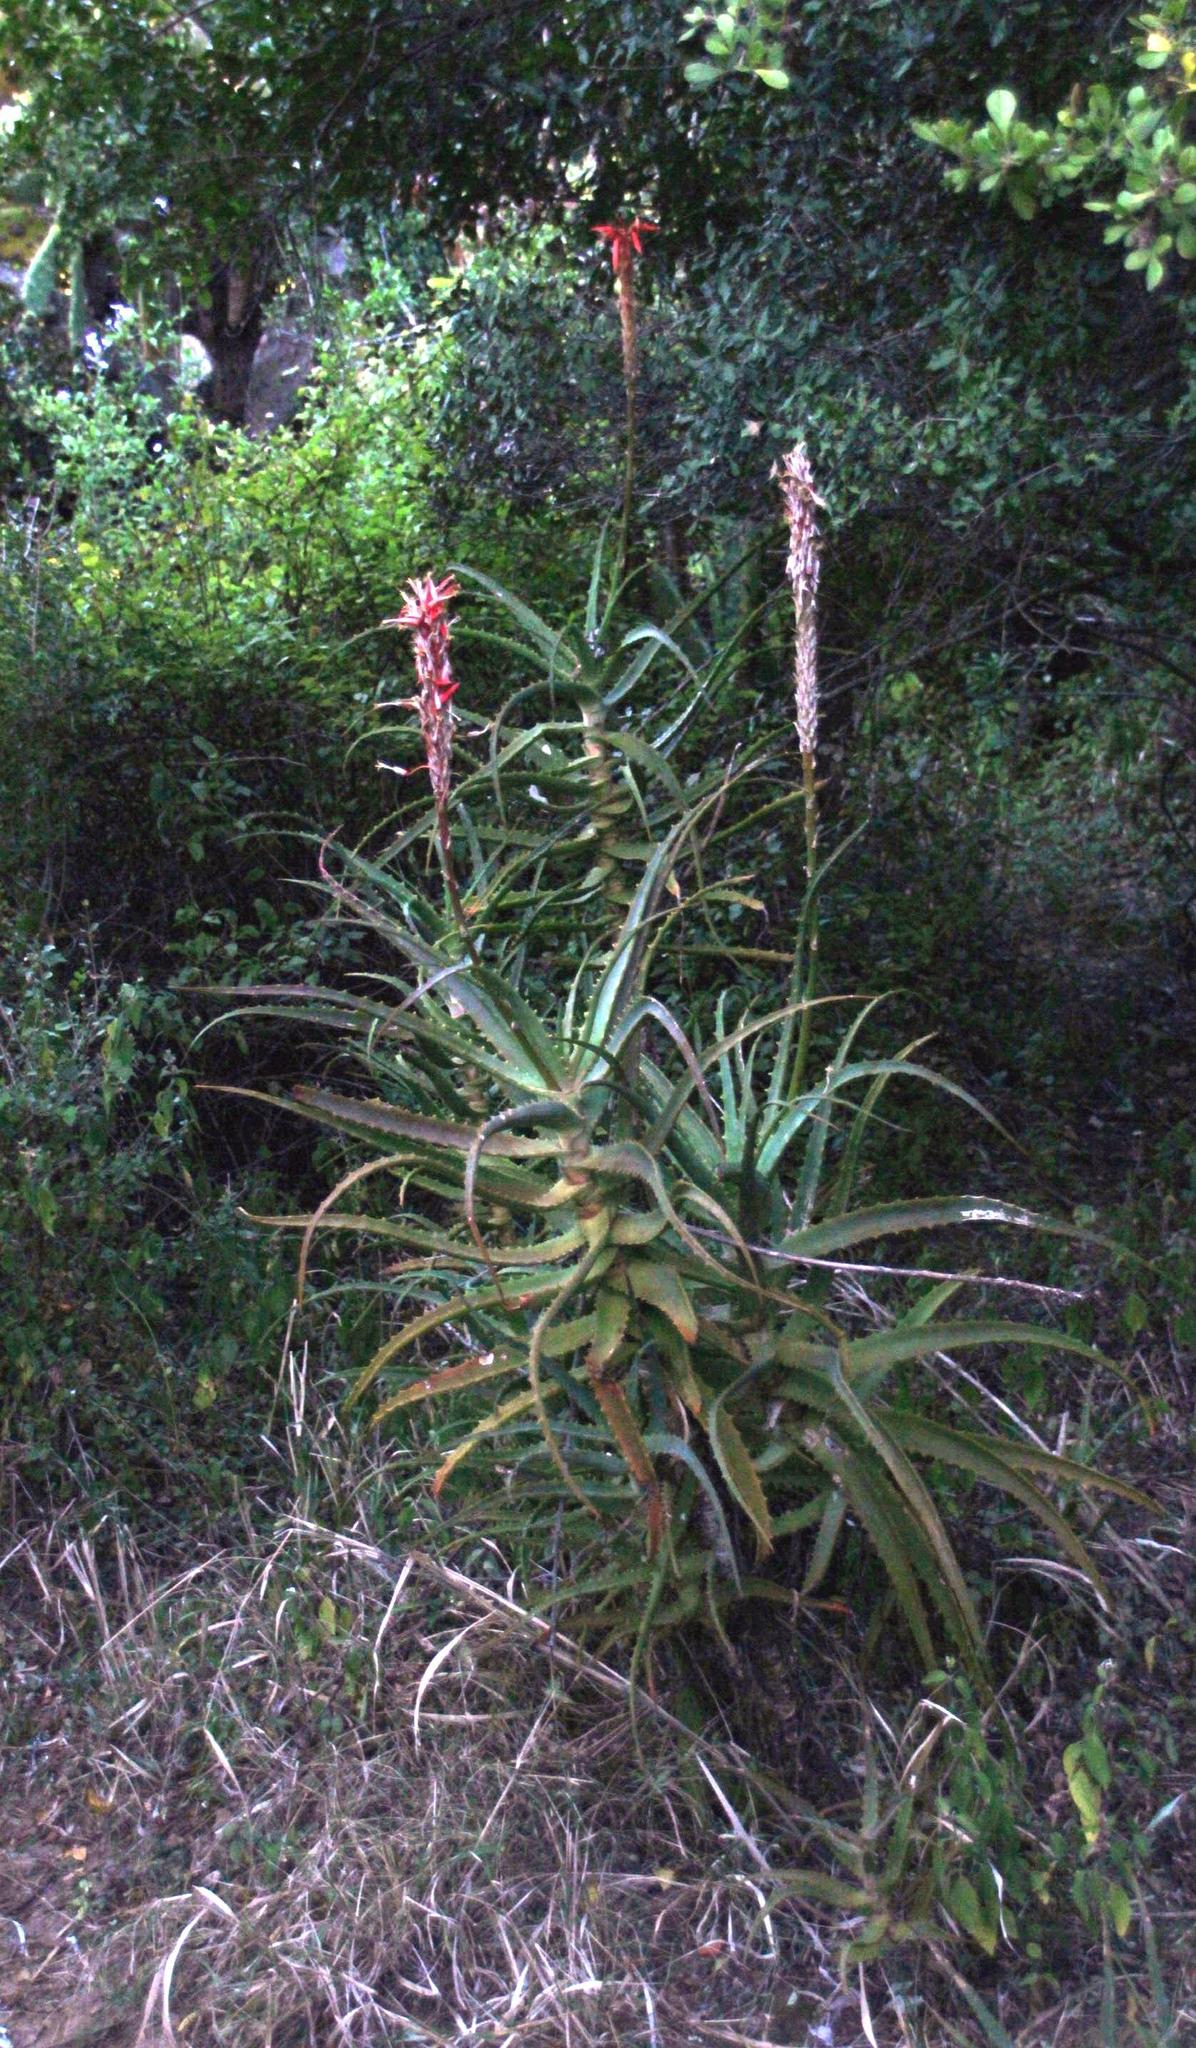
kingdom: Plantae
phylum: Tracheophyta
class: Liliopsida
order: Asparagales
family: Asphodelaceae
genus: Aloe
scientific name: Aloe arborescens
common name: Candelabra aloe
